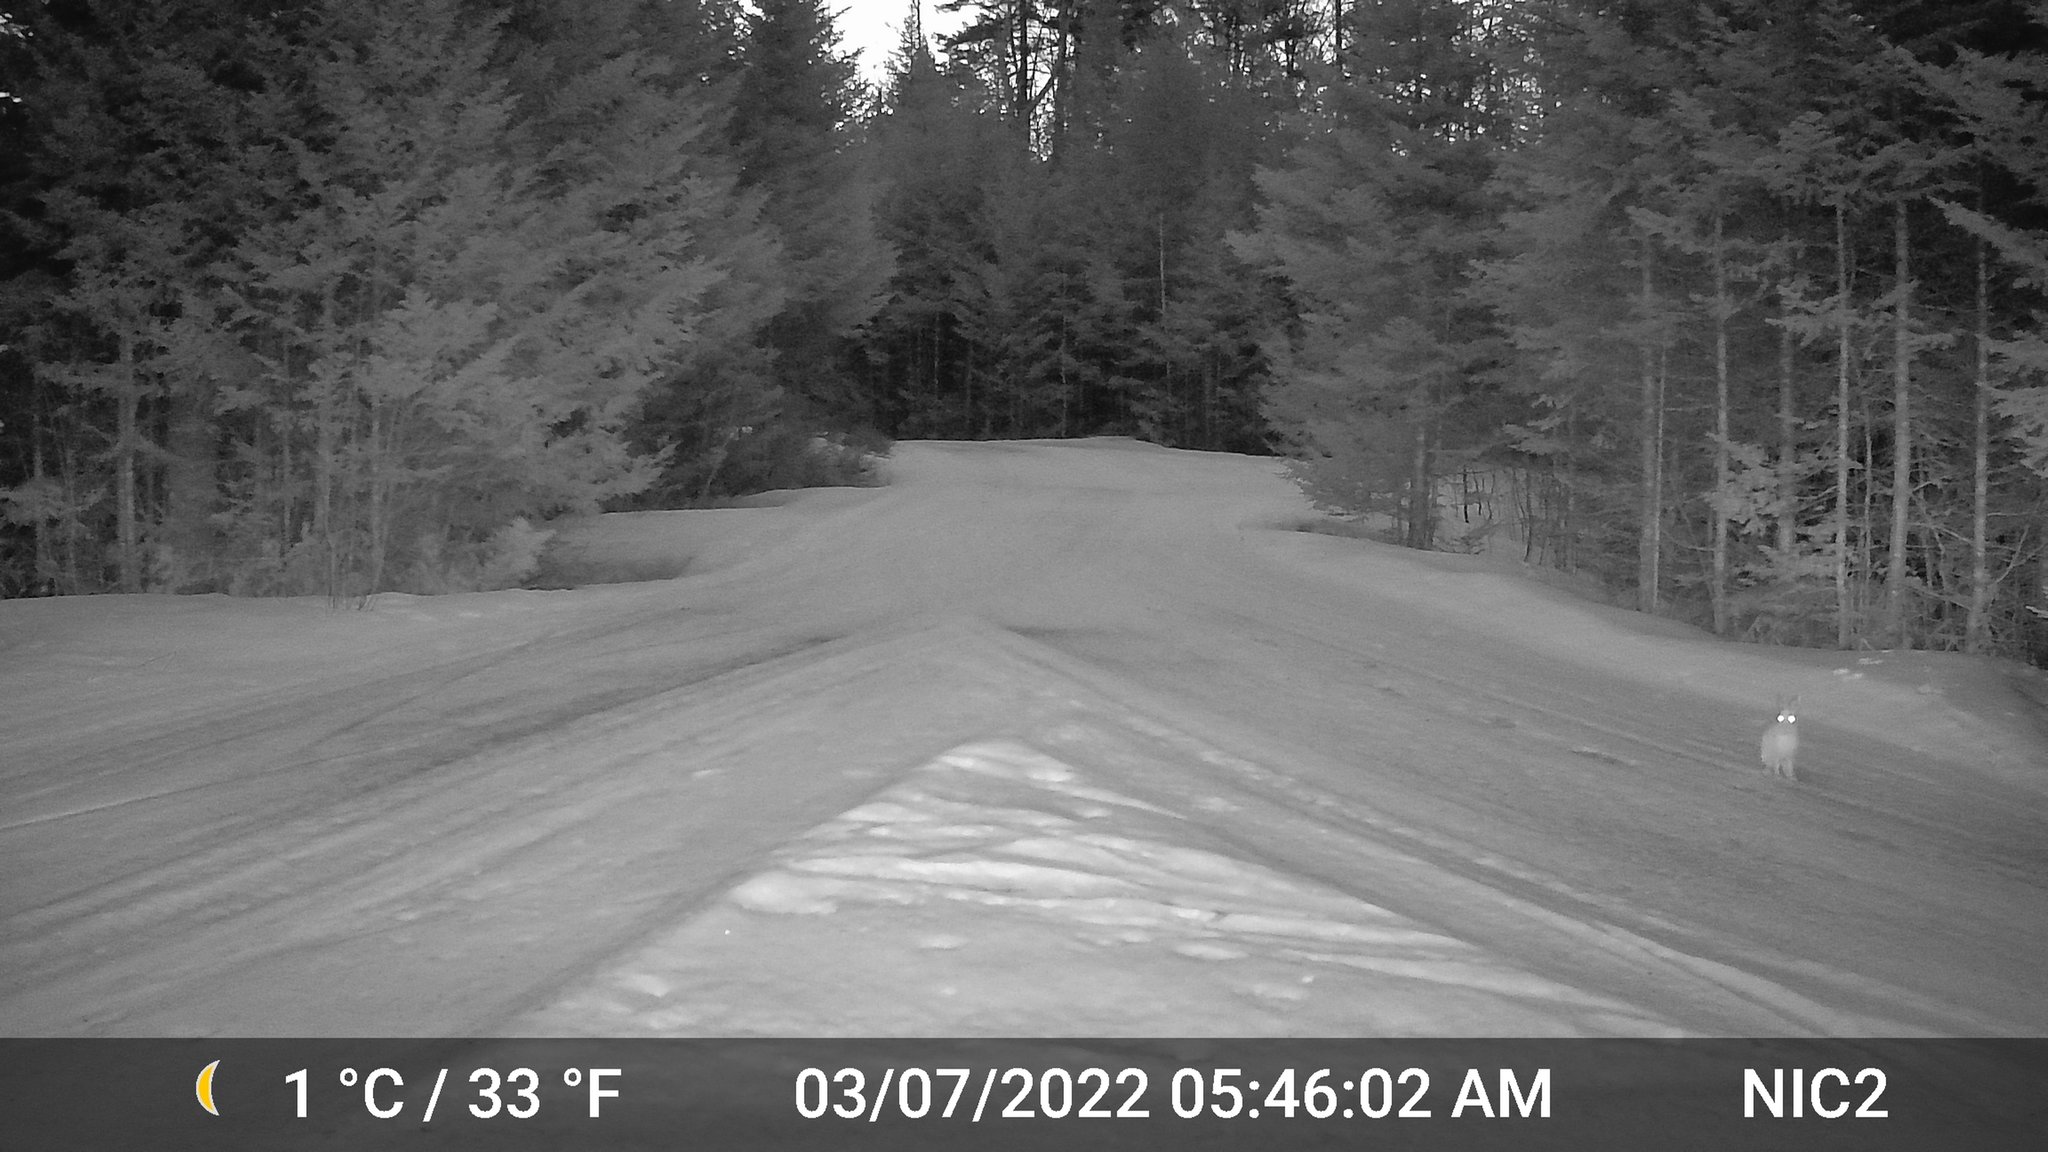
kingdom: Animalia
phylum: Chordata
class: Mammalia
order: Lagomorpha
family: Leporidae
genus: Lepus
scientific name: Lepus americanus
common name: Snowshoe hare
